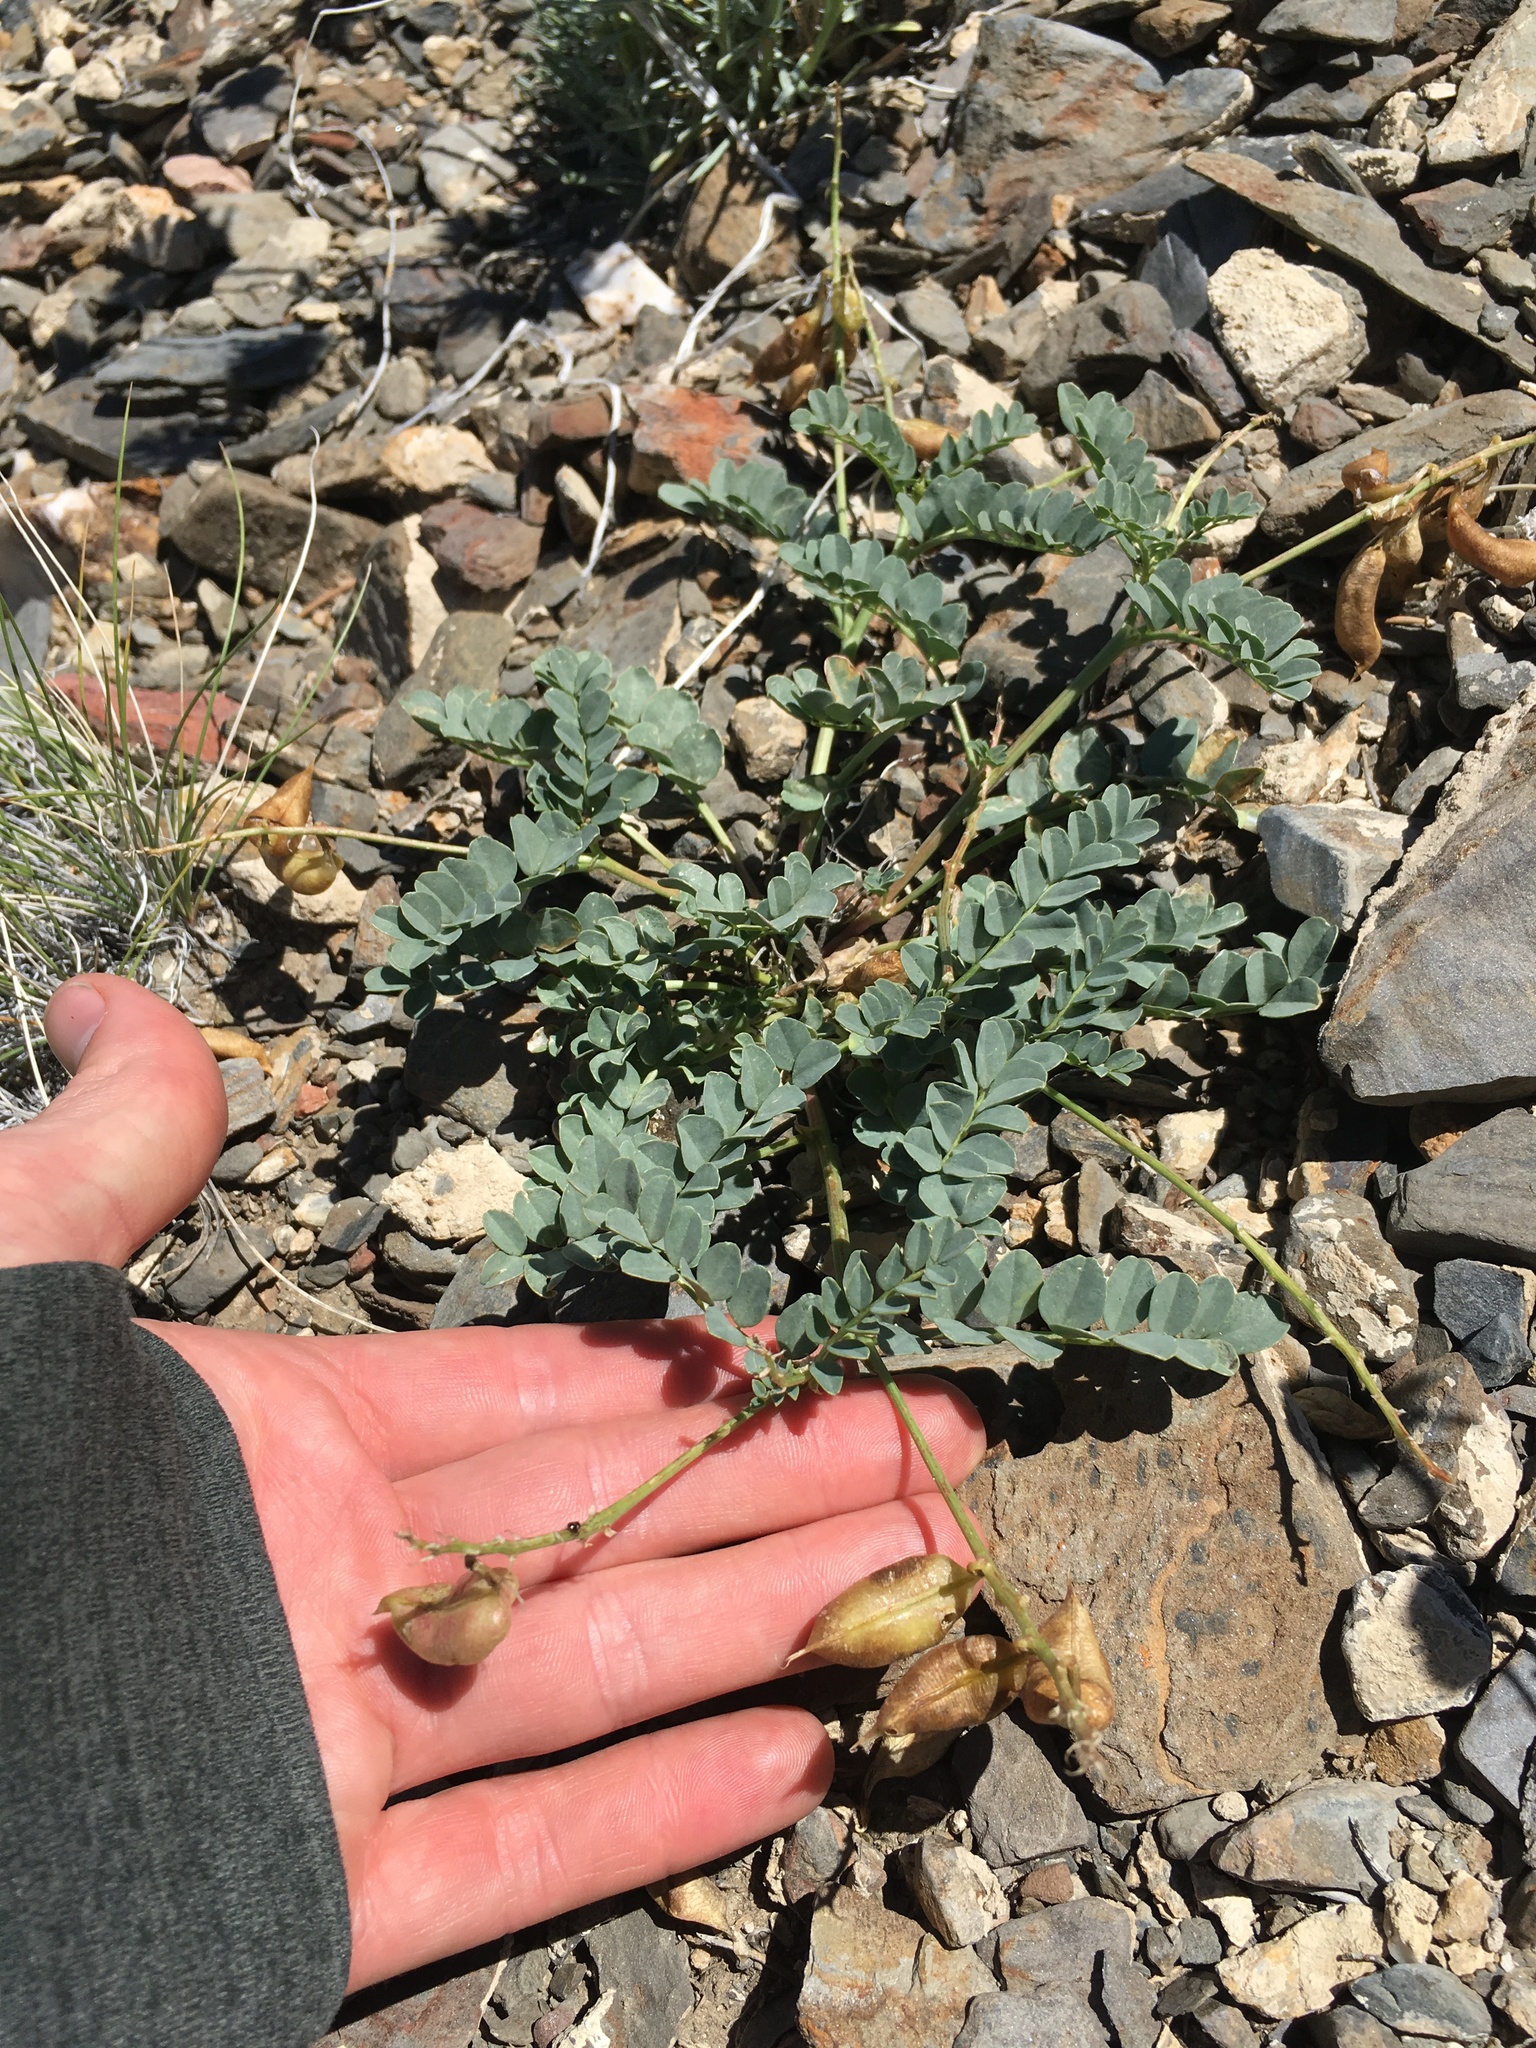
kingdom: Plantae
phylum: Tracheophyta
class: Magnoliopsida
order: Fabales
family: Fabaceae
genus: Astragalus
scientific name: Astragalus cimae
